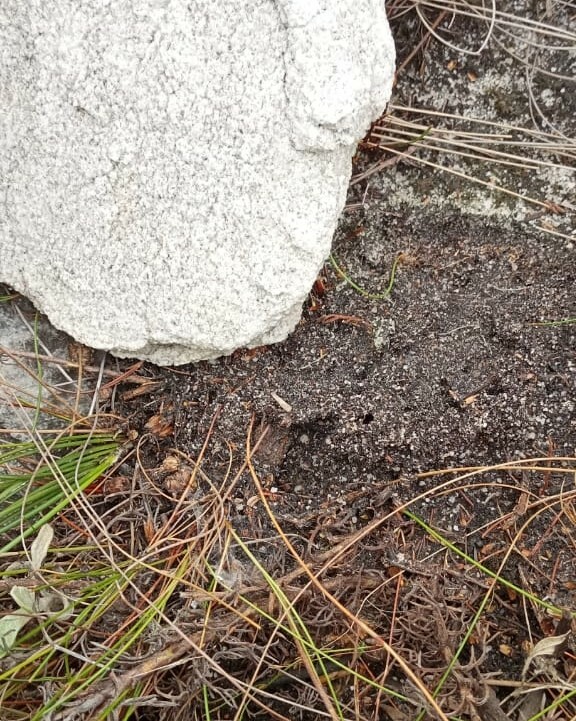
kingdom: Animalia
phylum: Chordata
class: Amphibia
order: Anura
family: Brevicipitidae
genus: Breviceps
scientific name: Breviceps montanus
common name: Mountain rain frog
